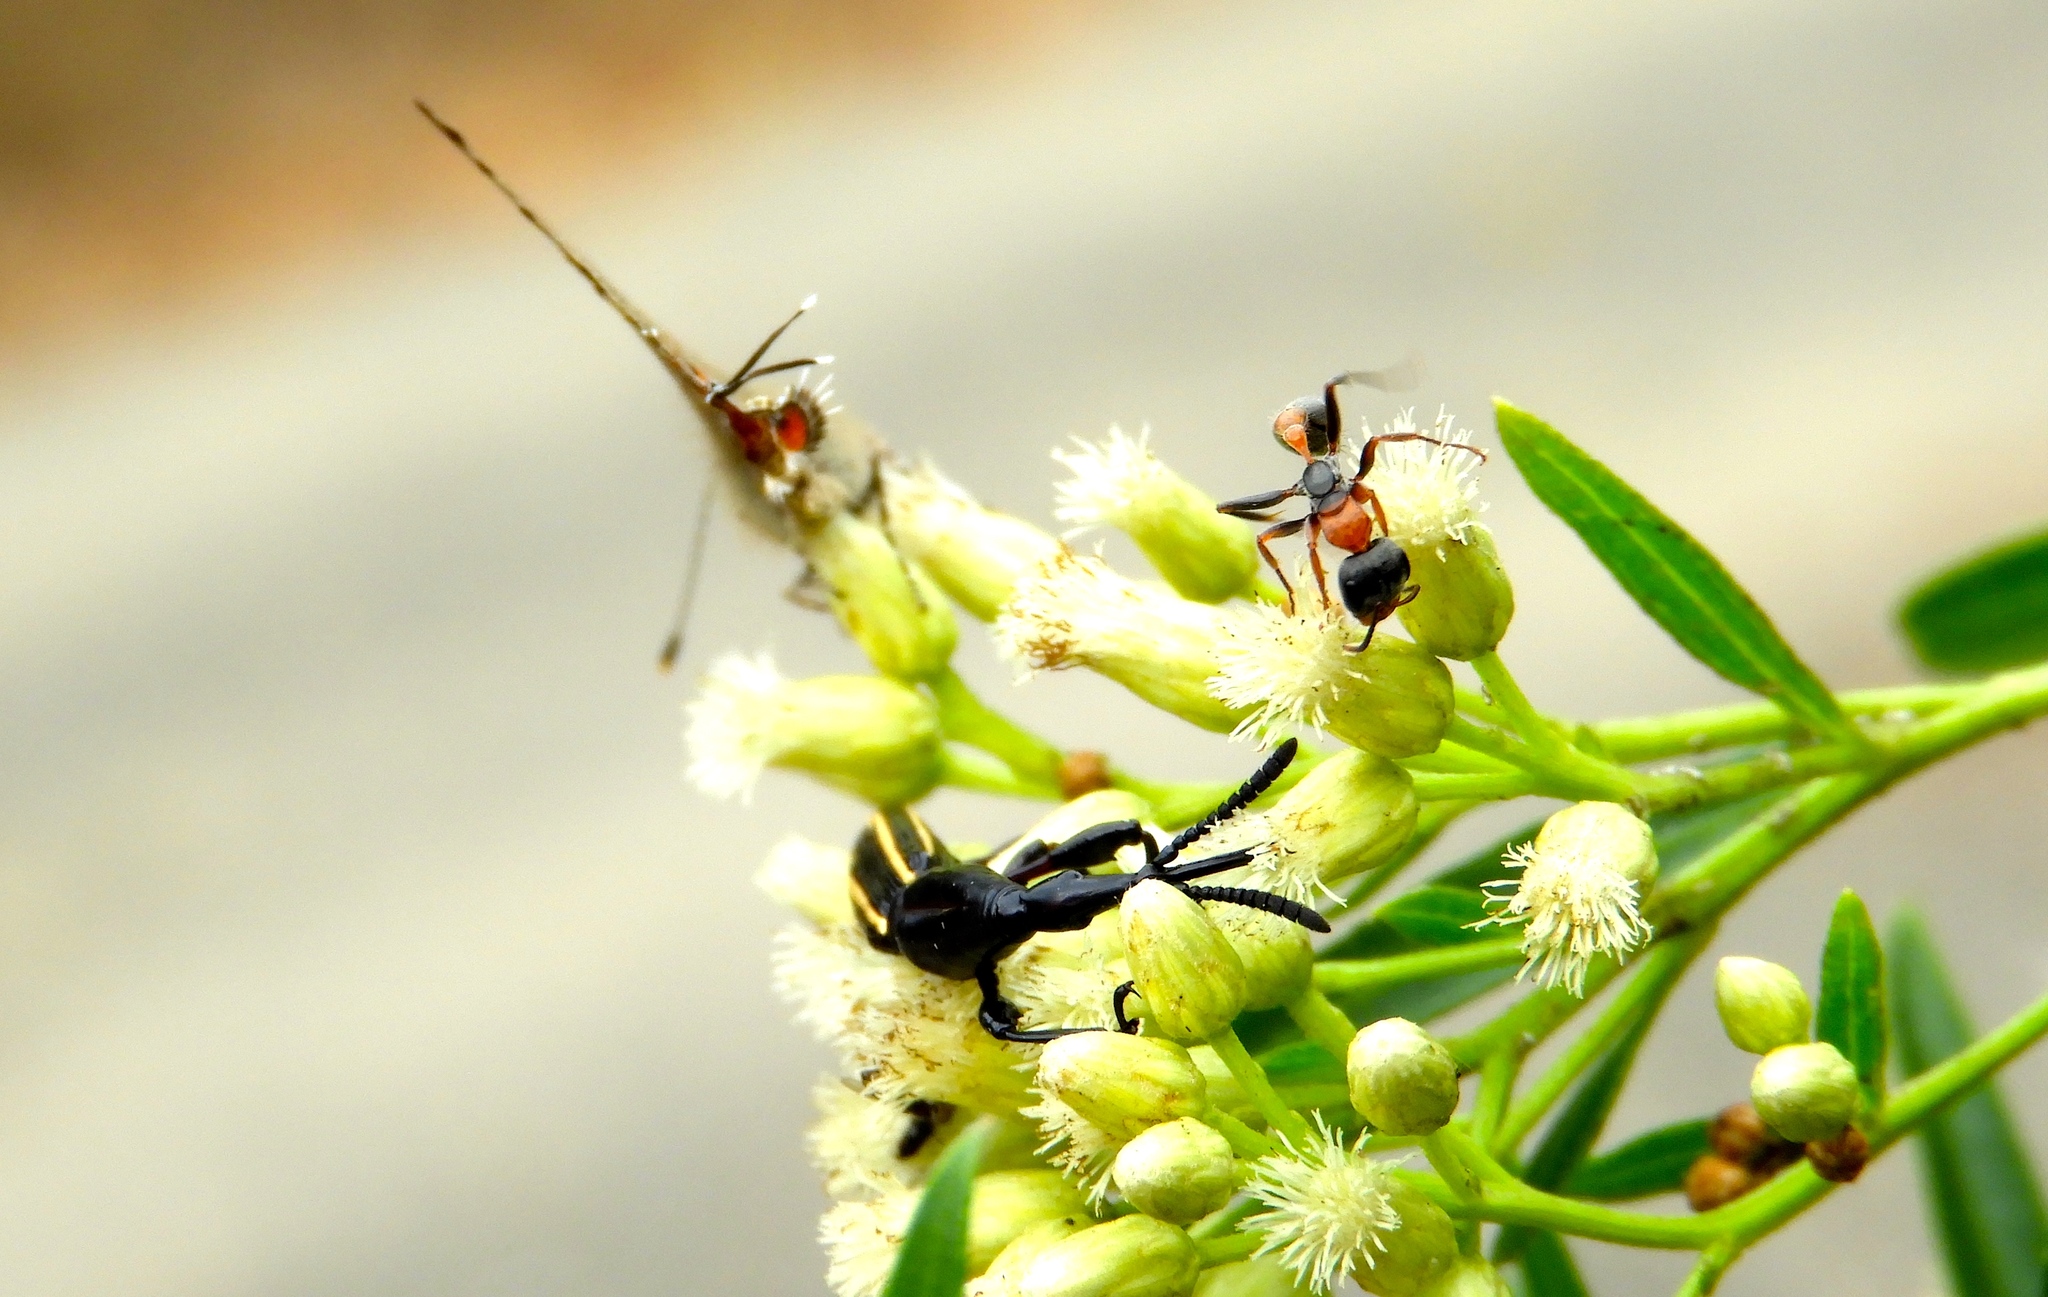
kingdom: Animalia
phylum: Arthropoda
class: Insecta
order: Hymenoptera
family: Formicidae
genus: Pseudomyrmex
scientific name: Pseudomyrmex gracilis
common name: Graceful twig ant
